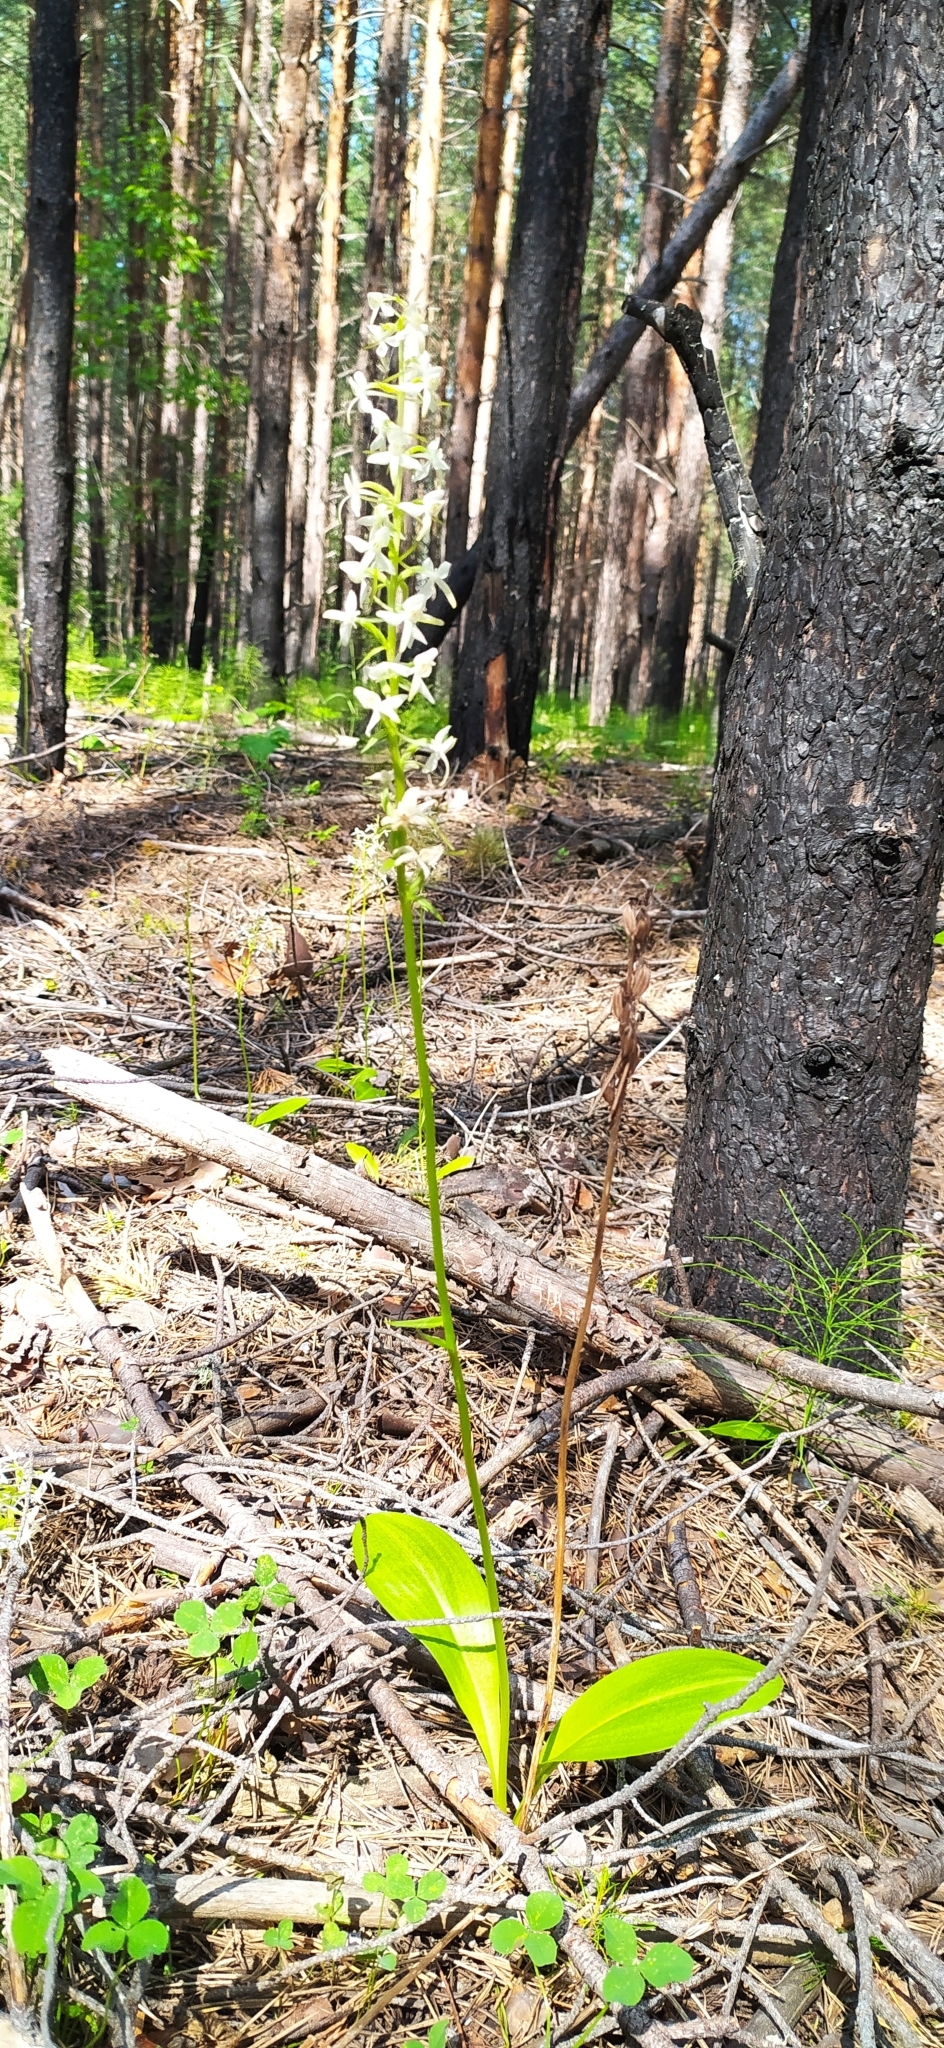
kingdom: Plantae
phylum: Tracheophyta
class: Liliopsida
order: Asparagales
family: Orchidaceae
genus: Platanthera
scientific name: Platanthera bifolia
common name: Lesser butterfly-orchid
